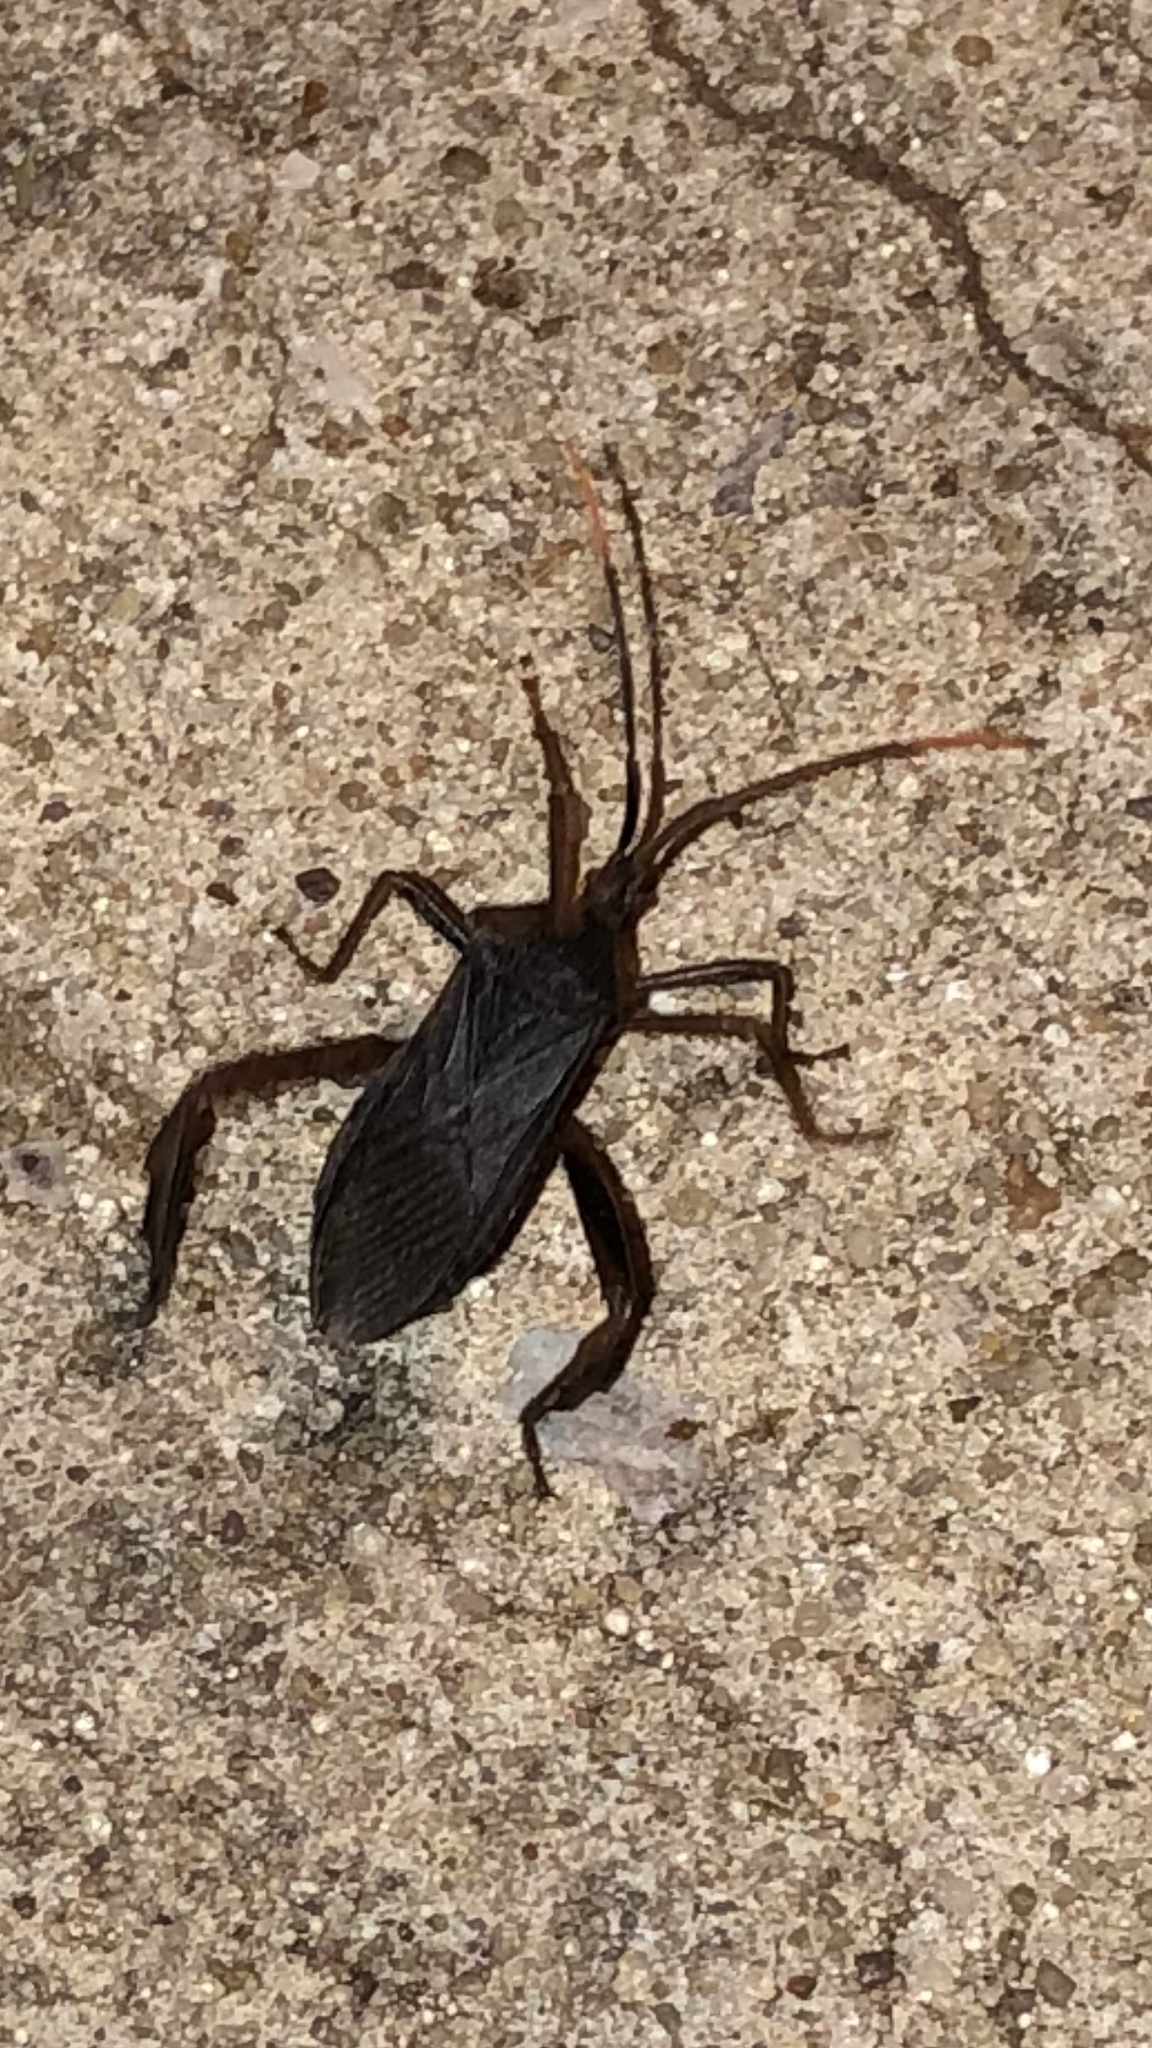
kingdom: Animalia
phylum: Arthropoda
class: Insecta
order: Hemiptera
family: Coreidae
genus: Acanthocephala
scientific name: Acanthocephala terminalis
